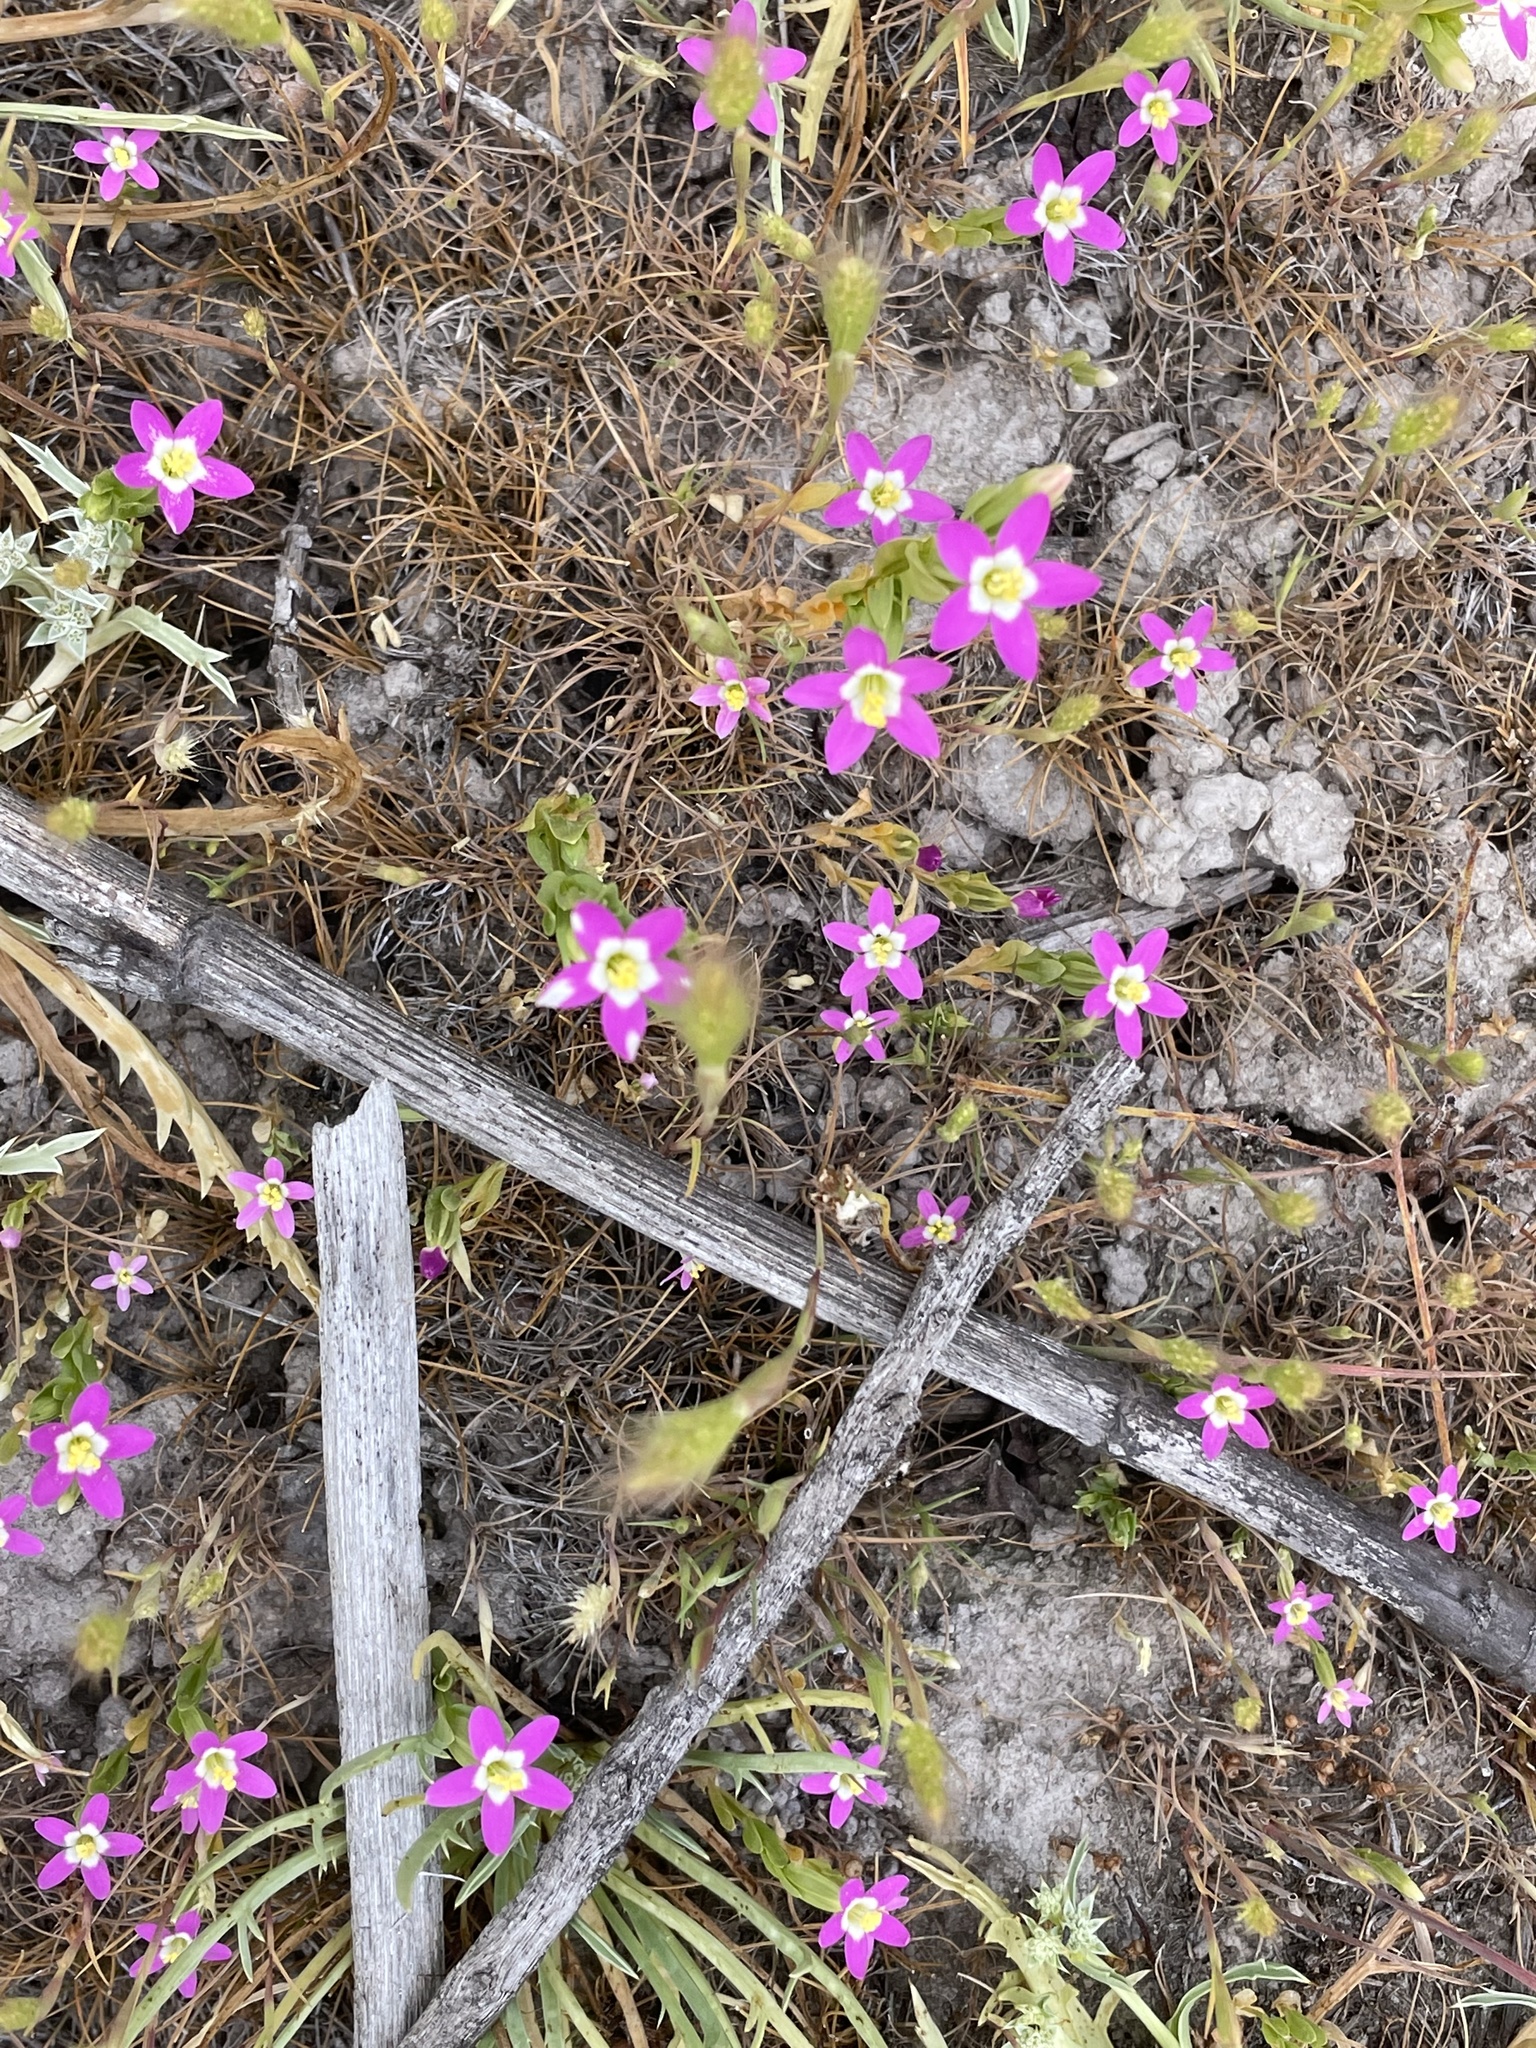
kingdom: Plantae
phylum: Tracheophyta
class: Magnoliopsida
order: Gentianales
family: Gentianaceae
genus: Zeltnera
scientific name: Zeltnera davyi
